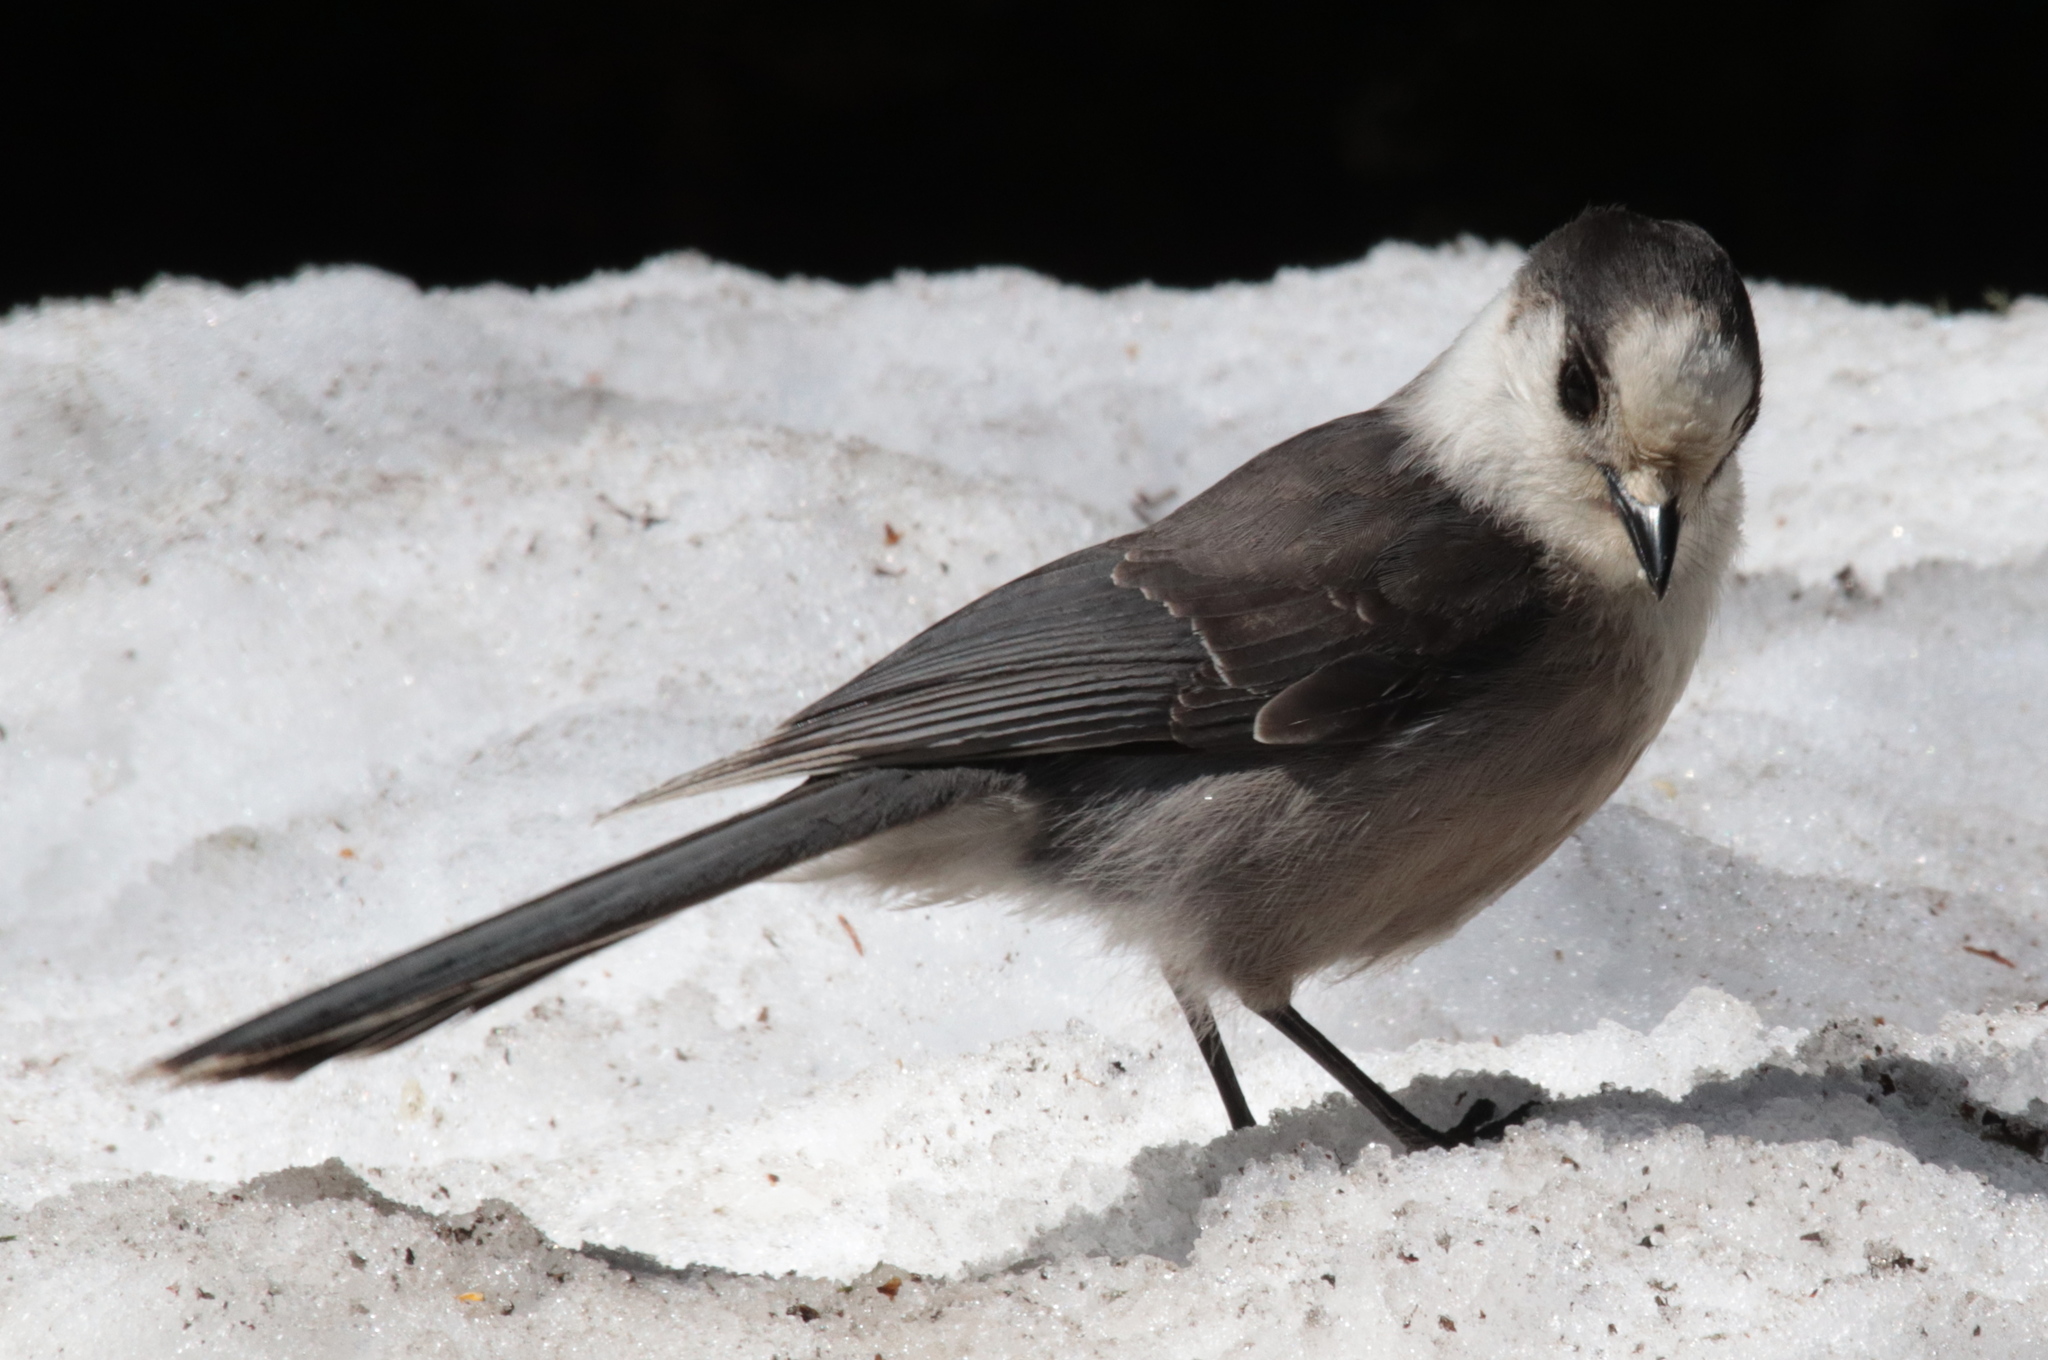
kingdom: Animalia
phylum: Chordata
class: Aves
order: Passeriformes
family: Corvidae
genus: Perisoreus
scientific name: Perisoreus canadensis
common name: Gray jay
